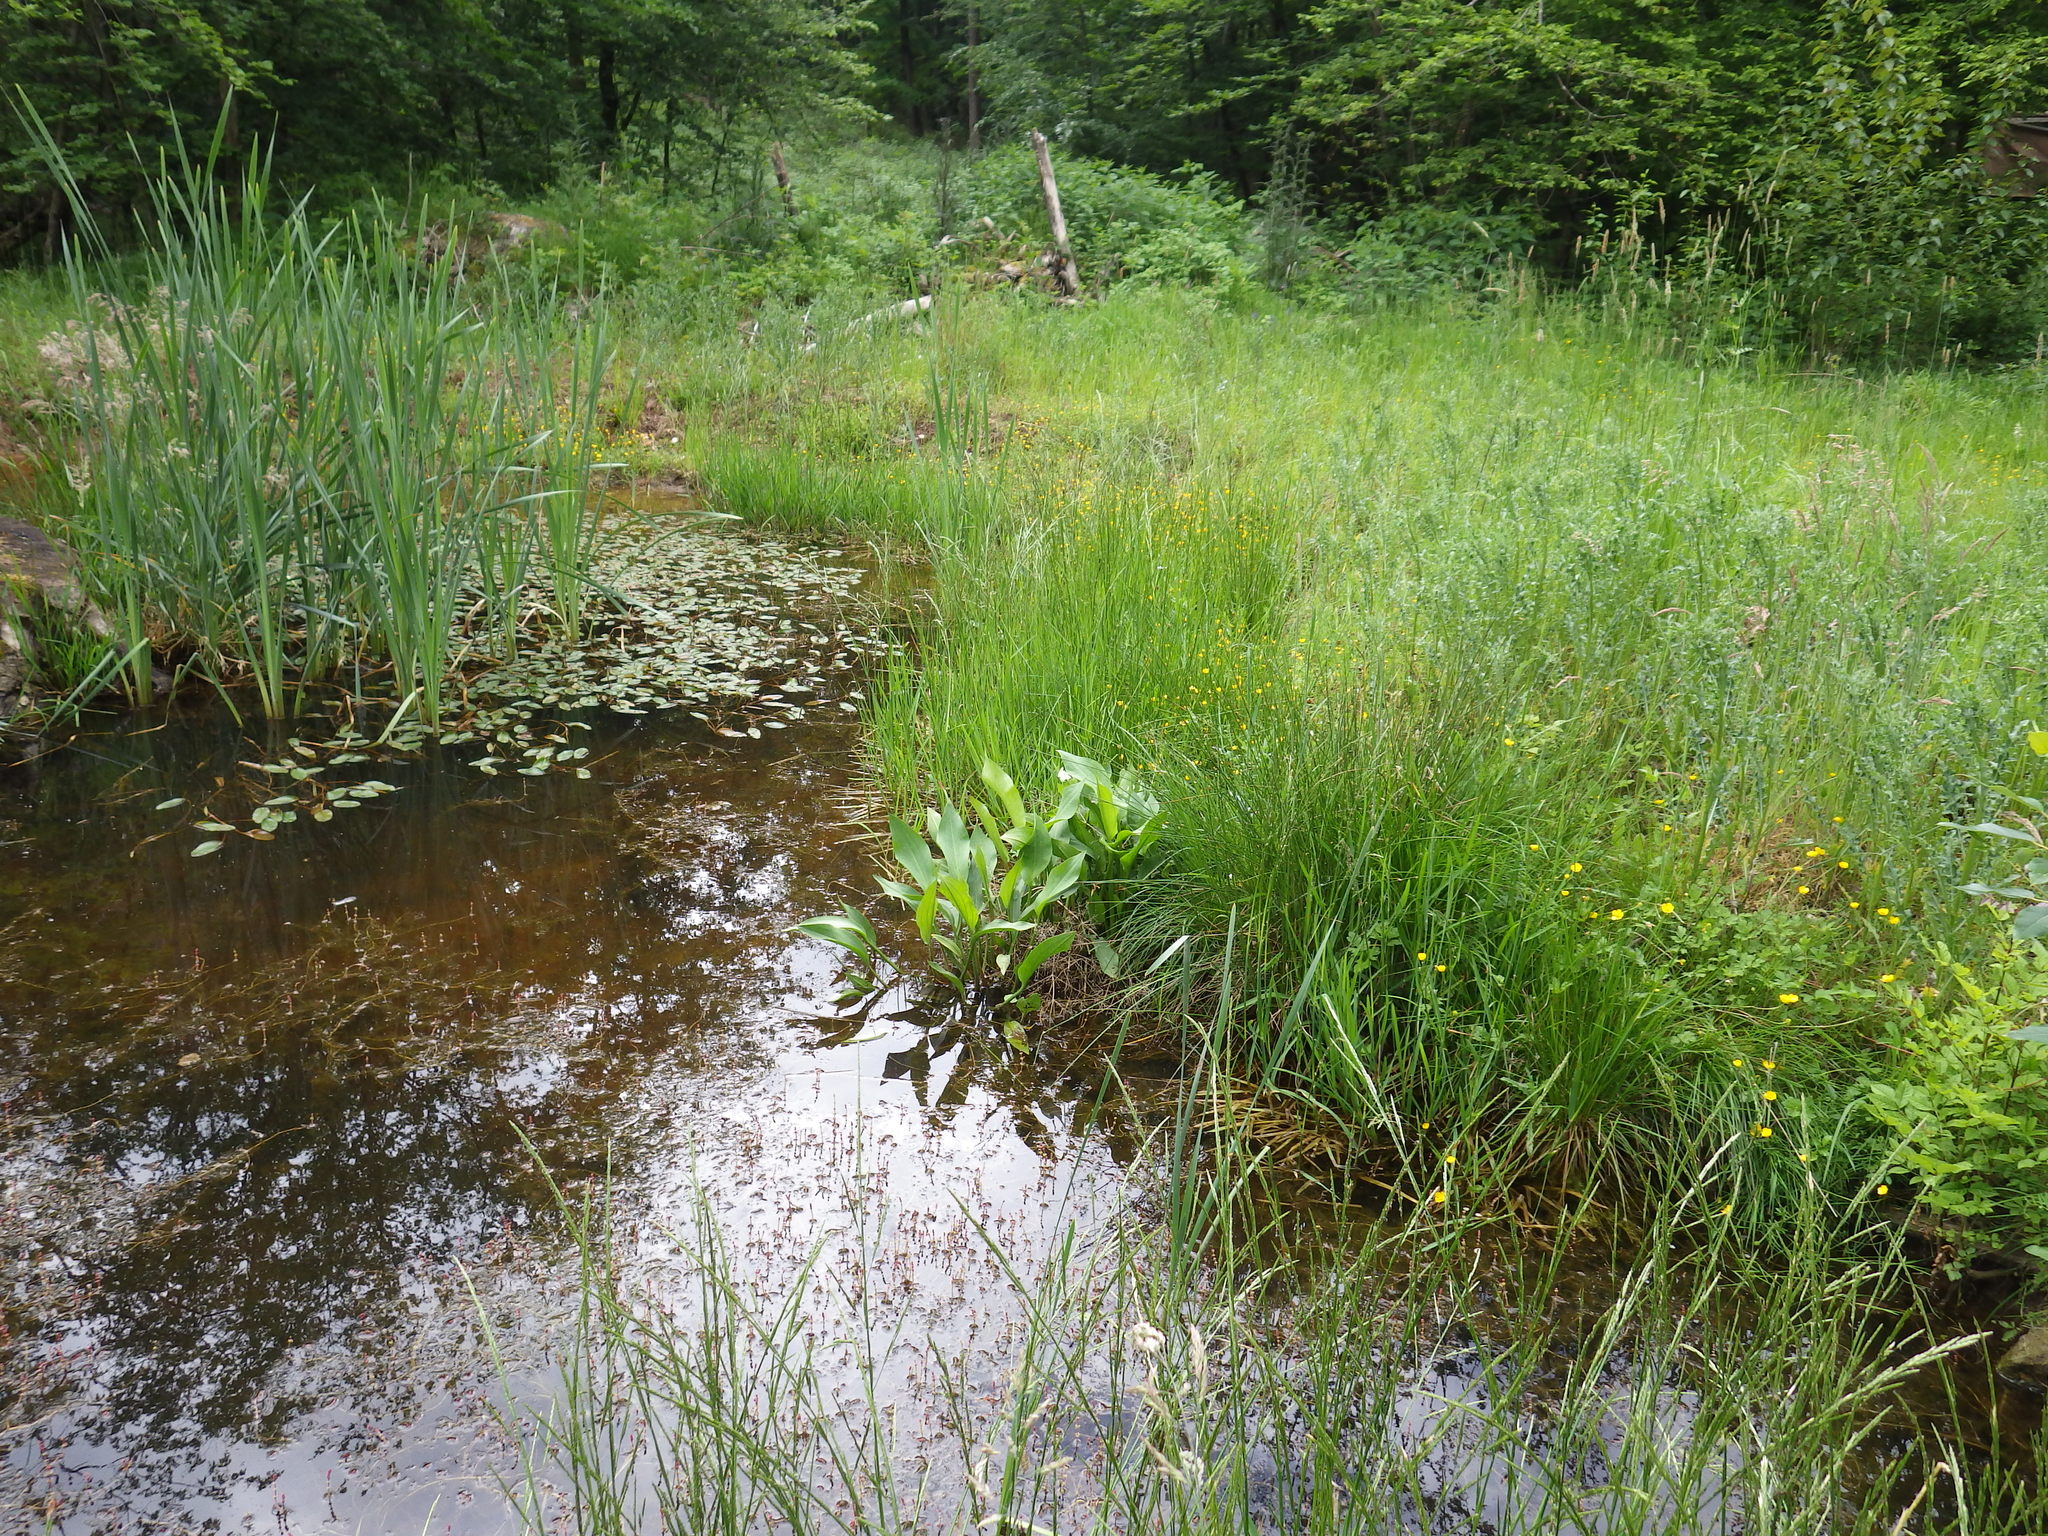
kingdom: Plantae
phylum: Tracheophyta
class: Liliopsida
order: Alismatales
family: Alismataceae
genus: Alisma
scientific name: Alisma plantago-aquatica
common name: Water-plantain
